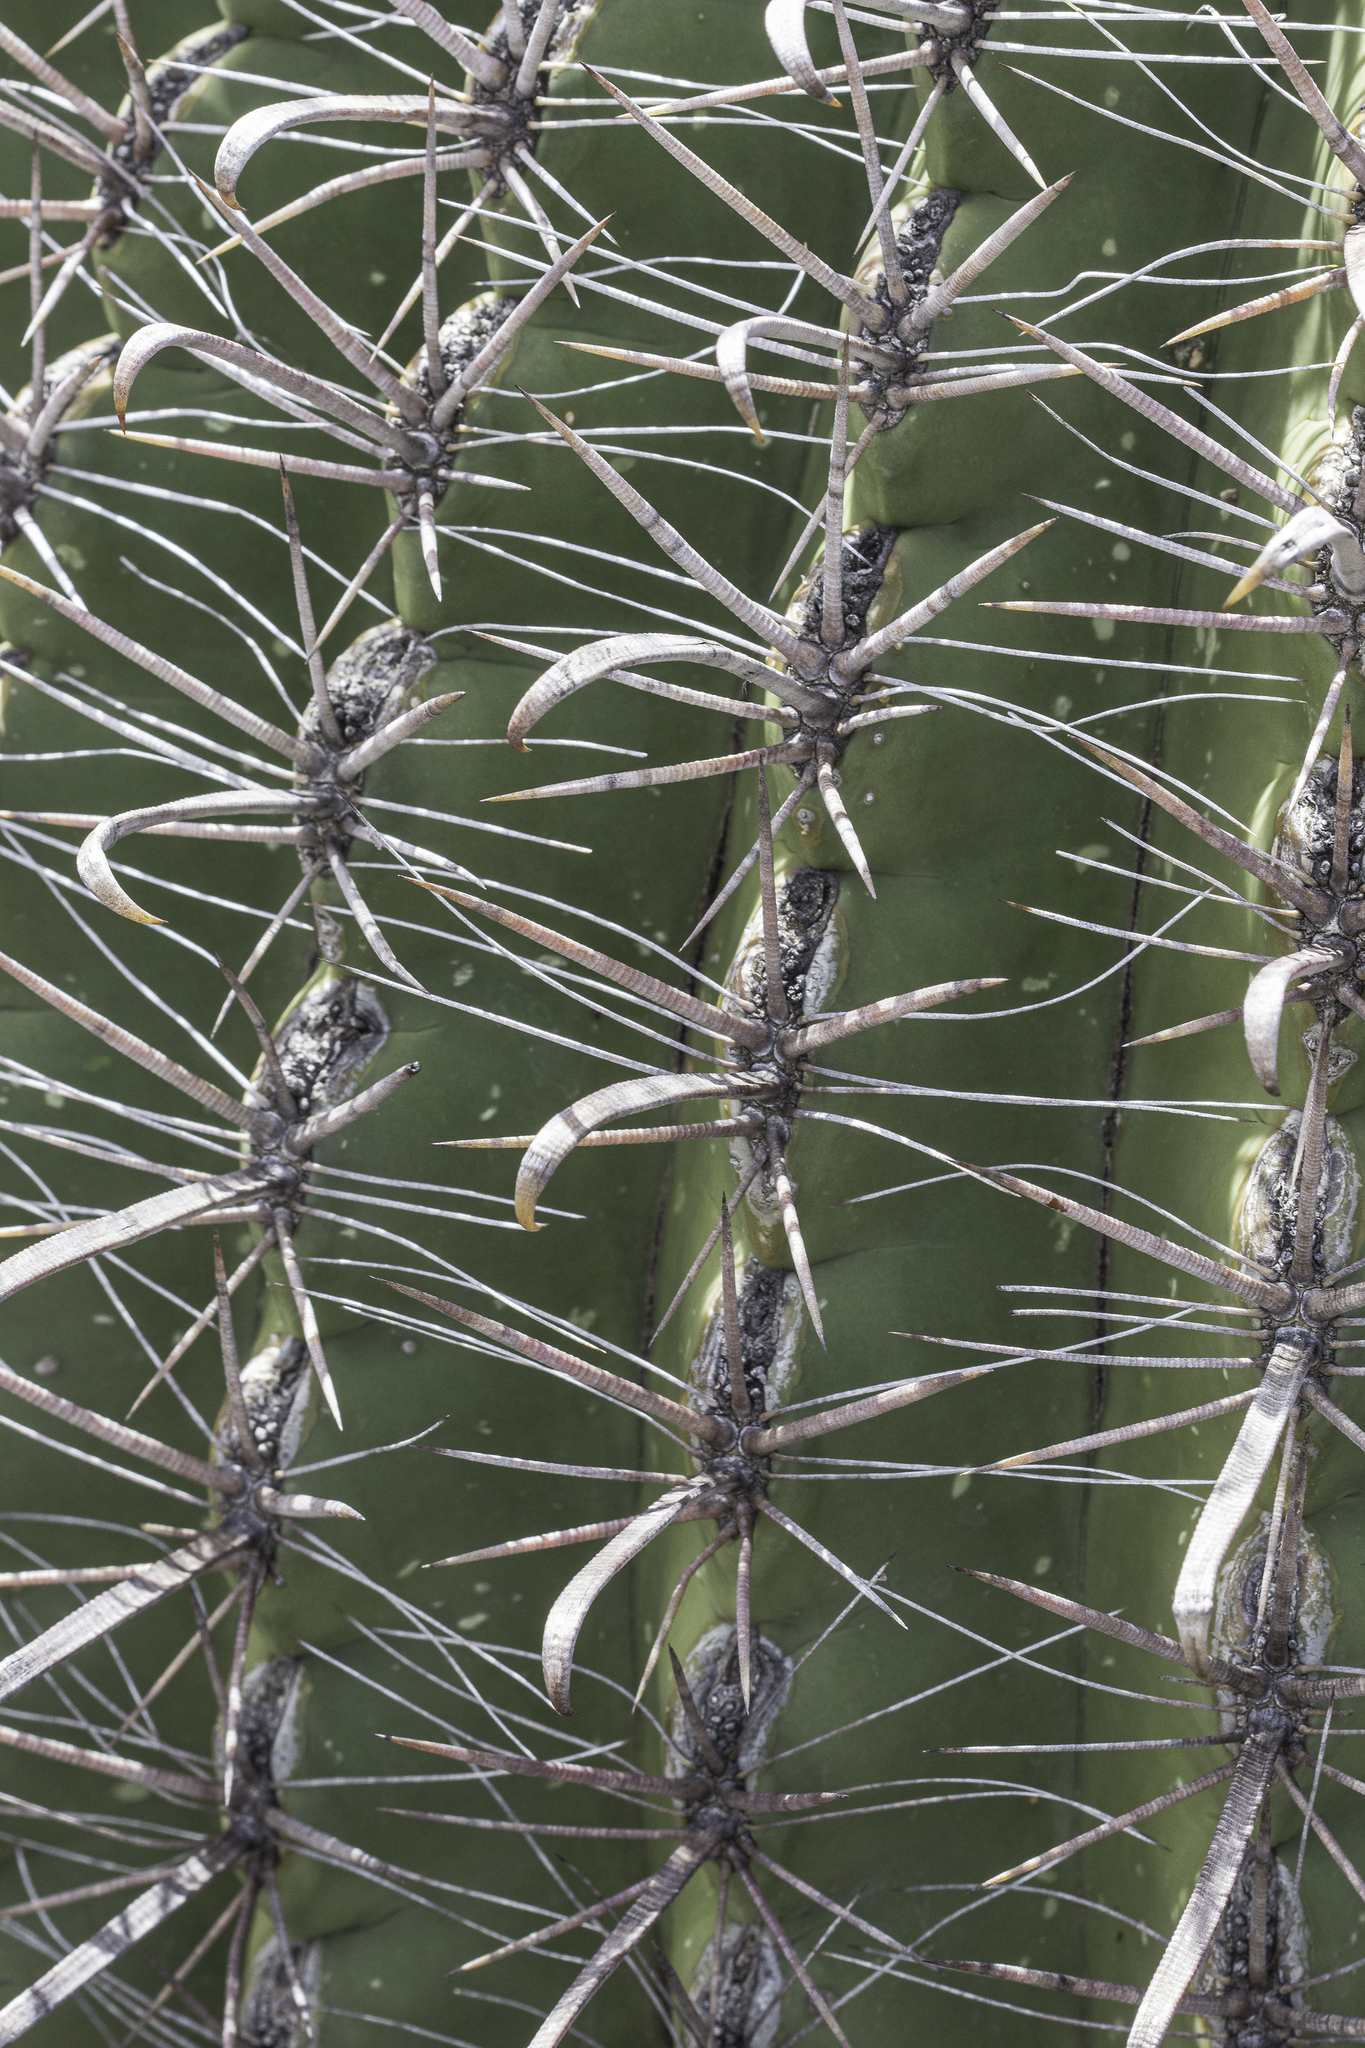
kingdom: Plantae
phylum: Tracheophyta
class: Magnoliopsida
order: Caryophyllales
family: Cactaceae
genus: Ferocactus
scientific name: Ferocactus wislizeni
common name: Candy barrel cactus
